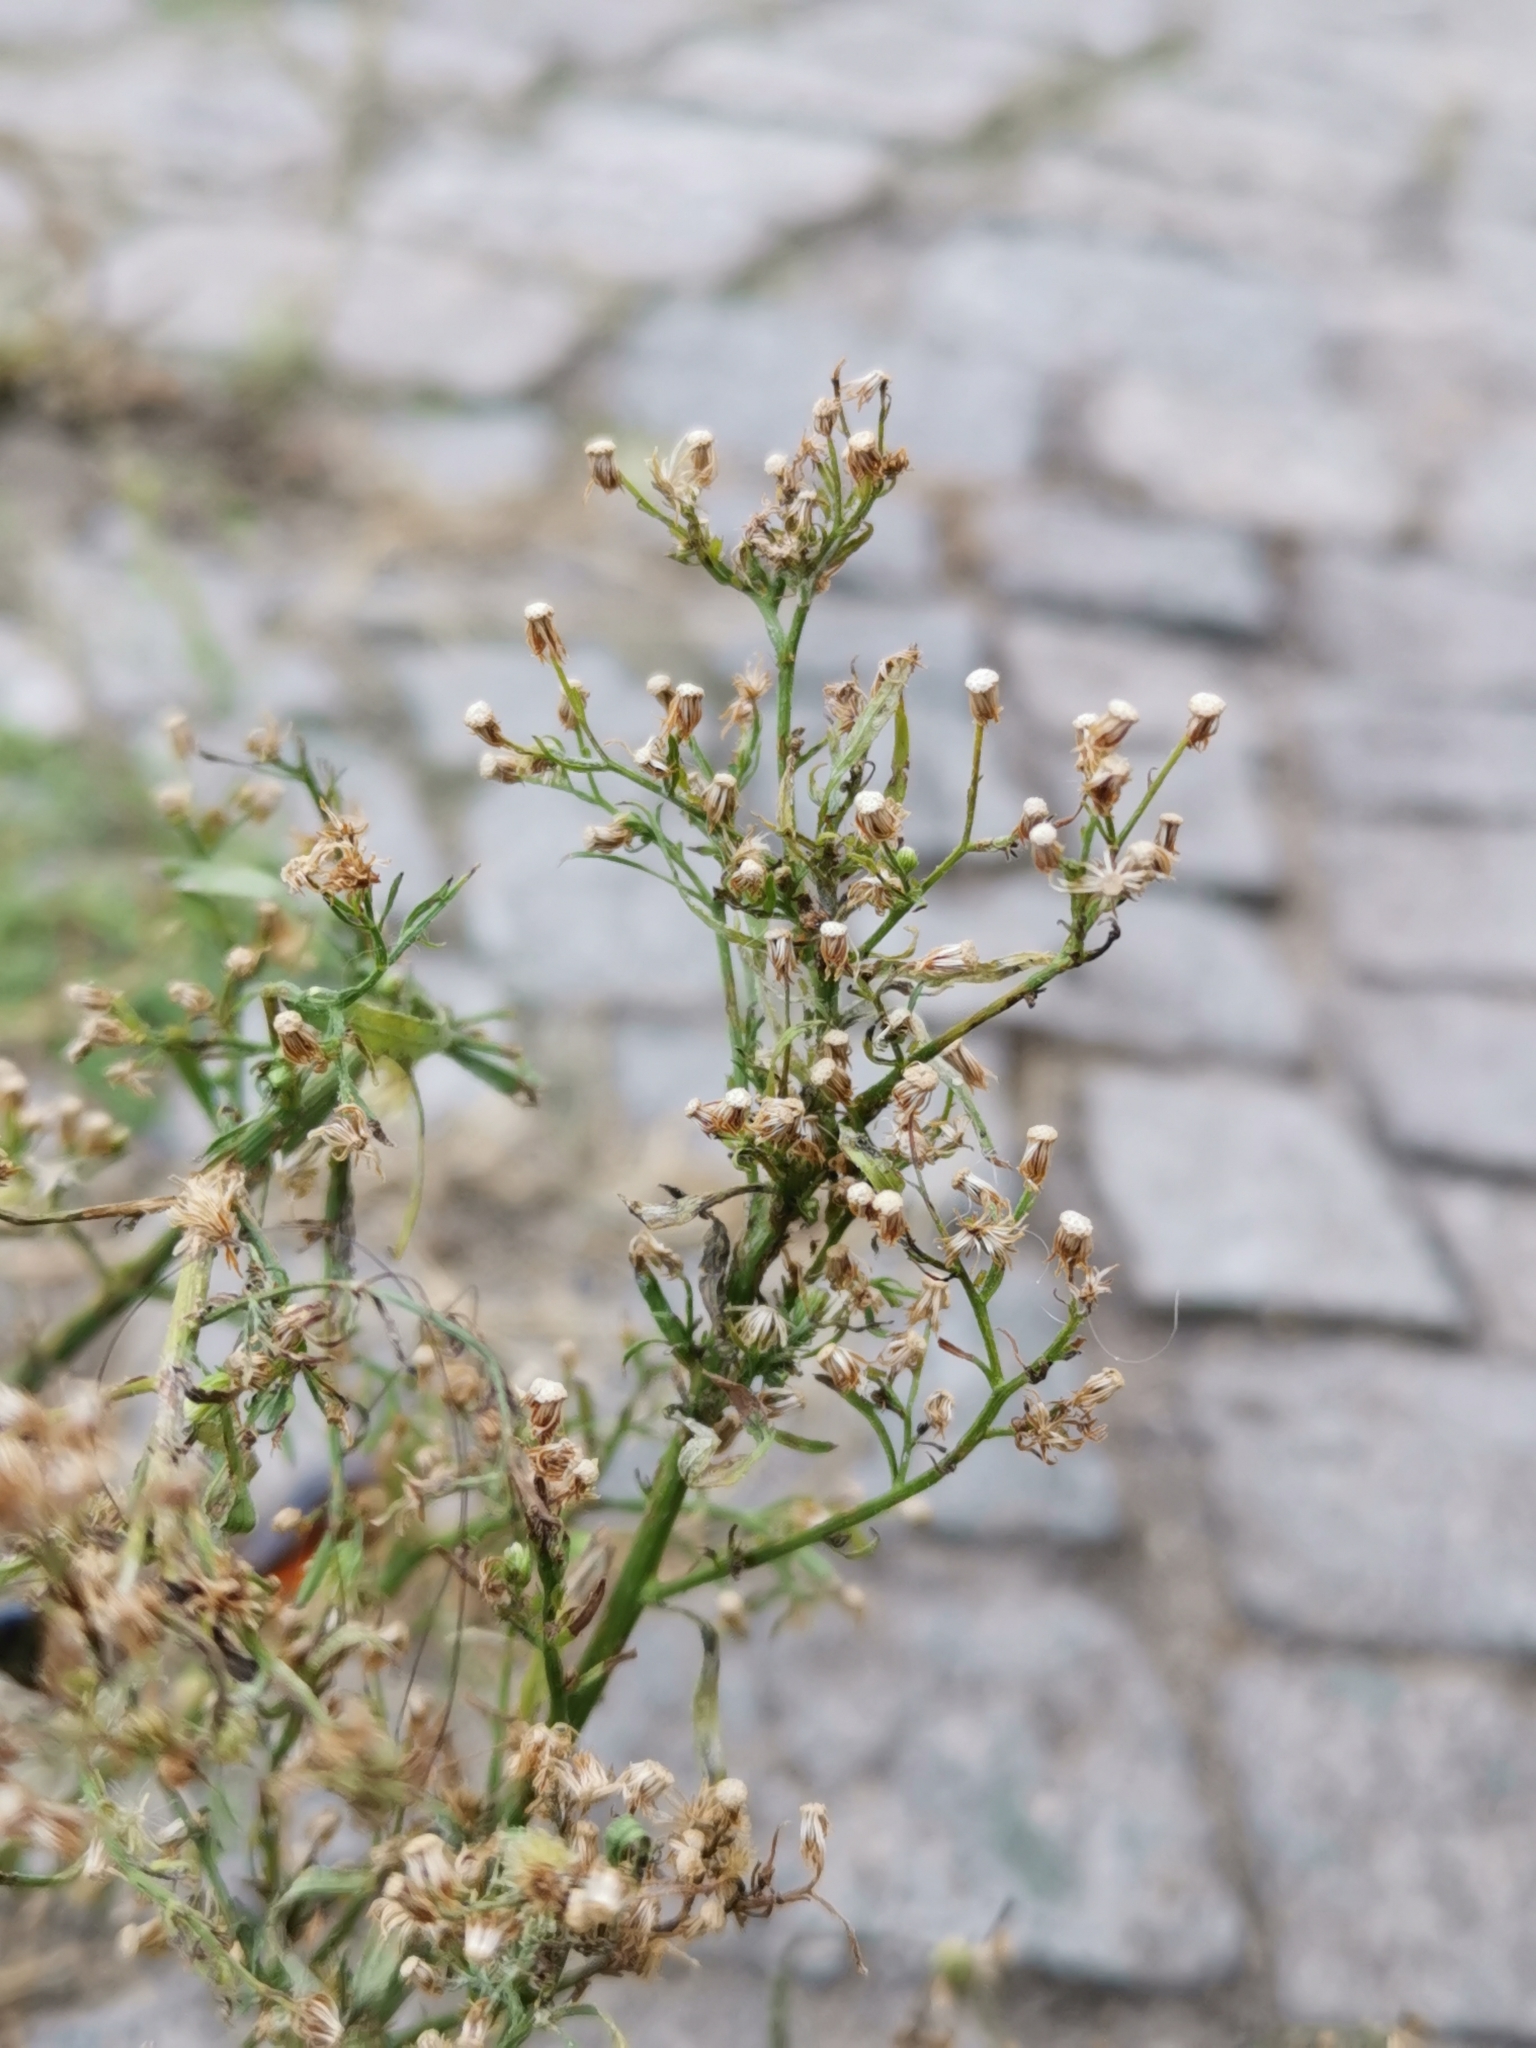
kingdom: Plantae
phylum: Tracheophyta
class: Magnoliopsida
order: Asterales
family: Asteraceae
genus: Erigeron
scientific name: Erigeron canadensis
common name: Canadian fleabane
